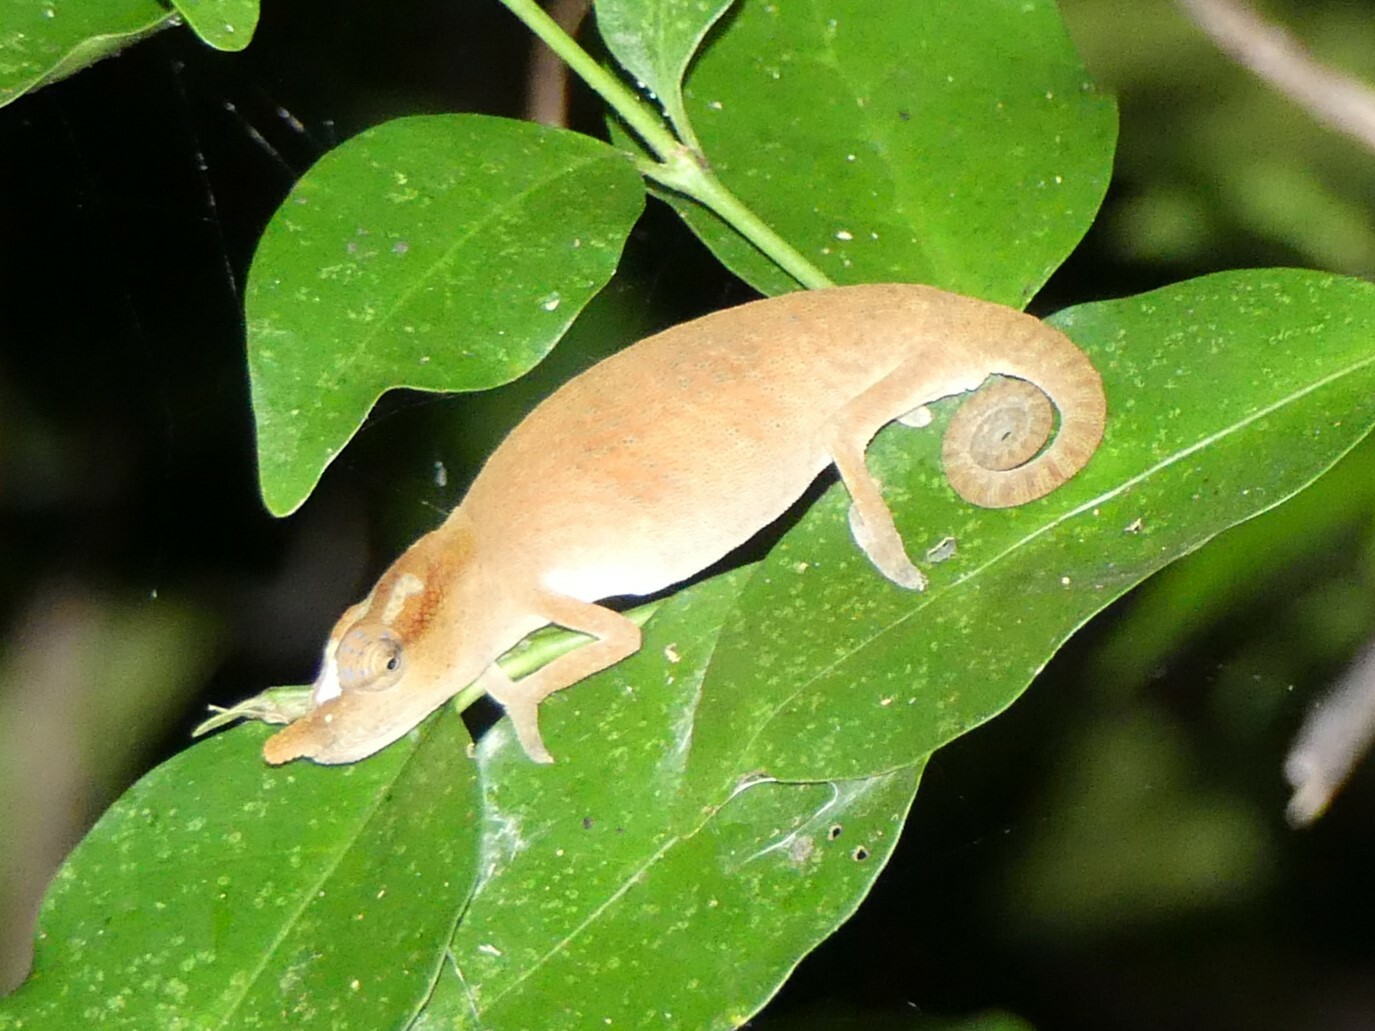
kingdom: Animalia
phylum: Chordata
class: Squamata
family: Chamaeleonidae
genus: Calumma
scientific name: Calumma boettgeri
